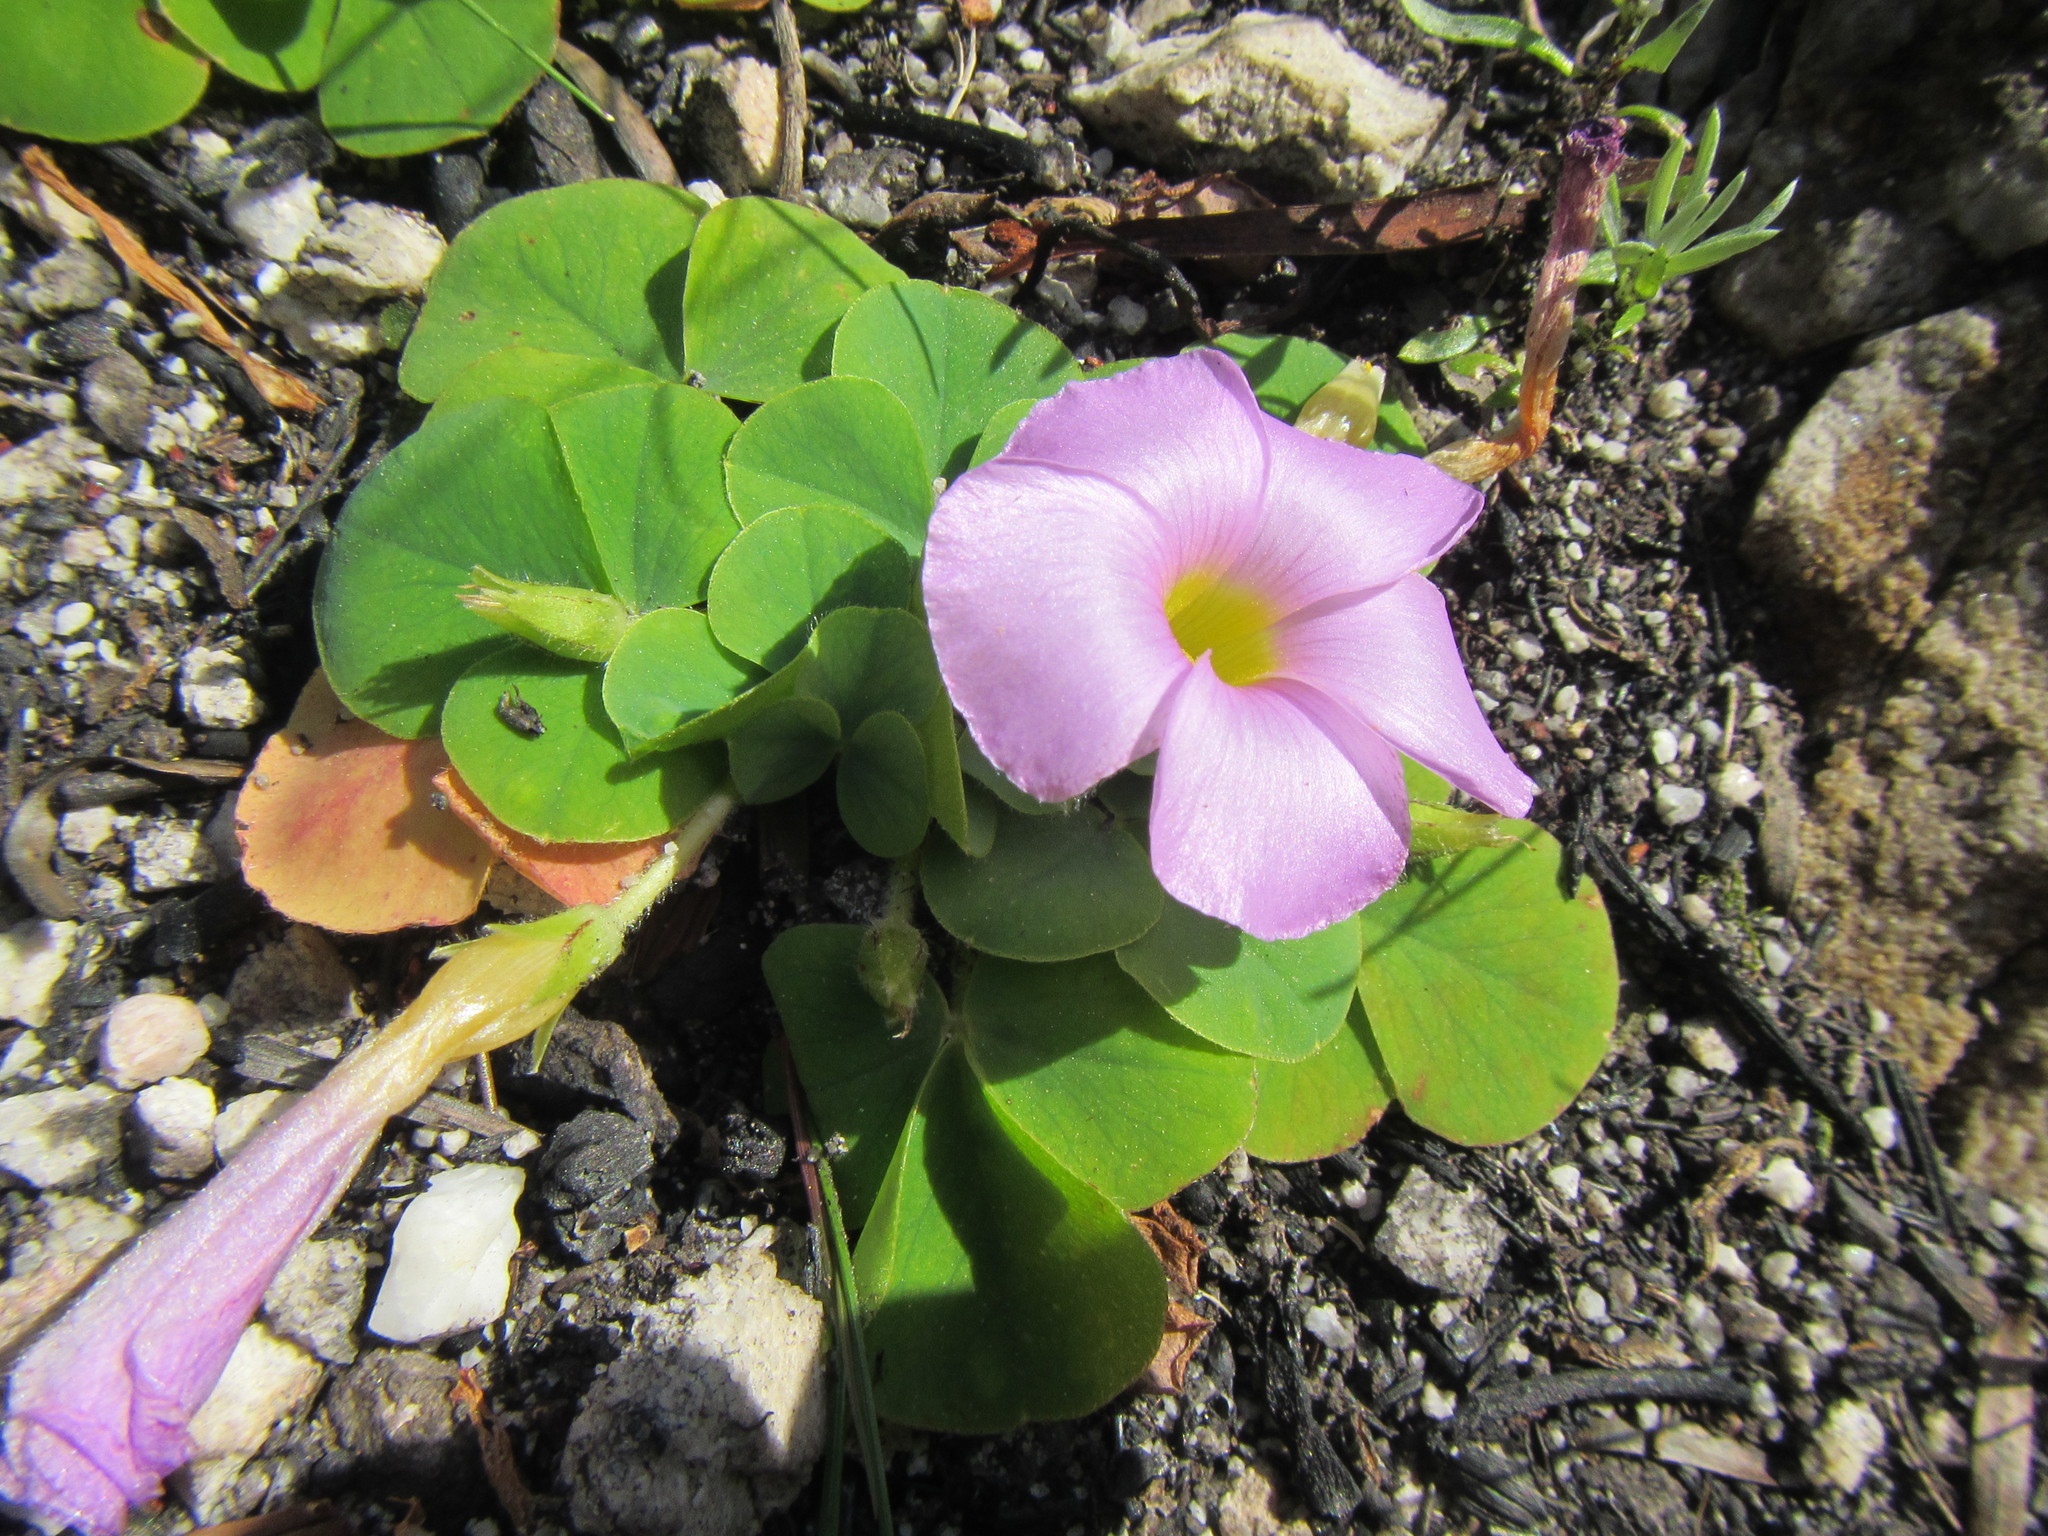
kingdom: Plantae
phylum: Tracheophyta
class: Magnoliopsida
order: Oxalidales
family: Oxalidaceae
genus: Oxalis
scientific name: Oxalis purpurea
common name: Purple woodsorrel
